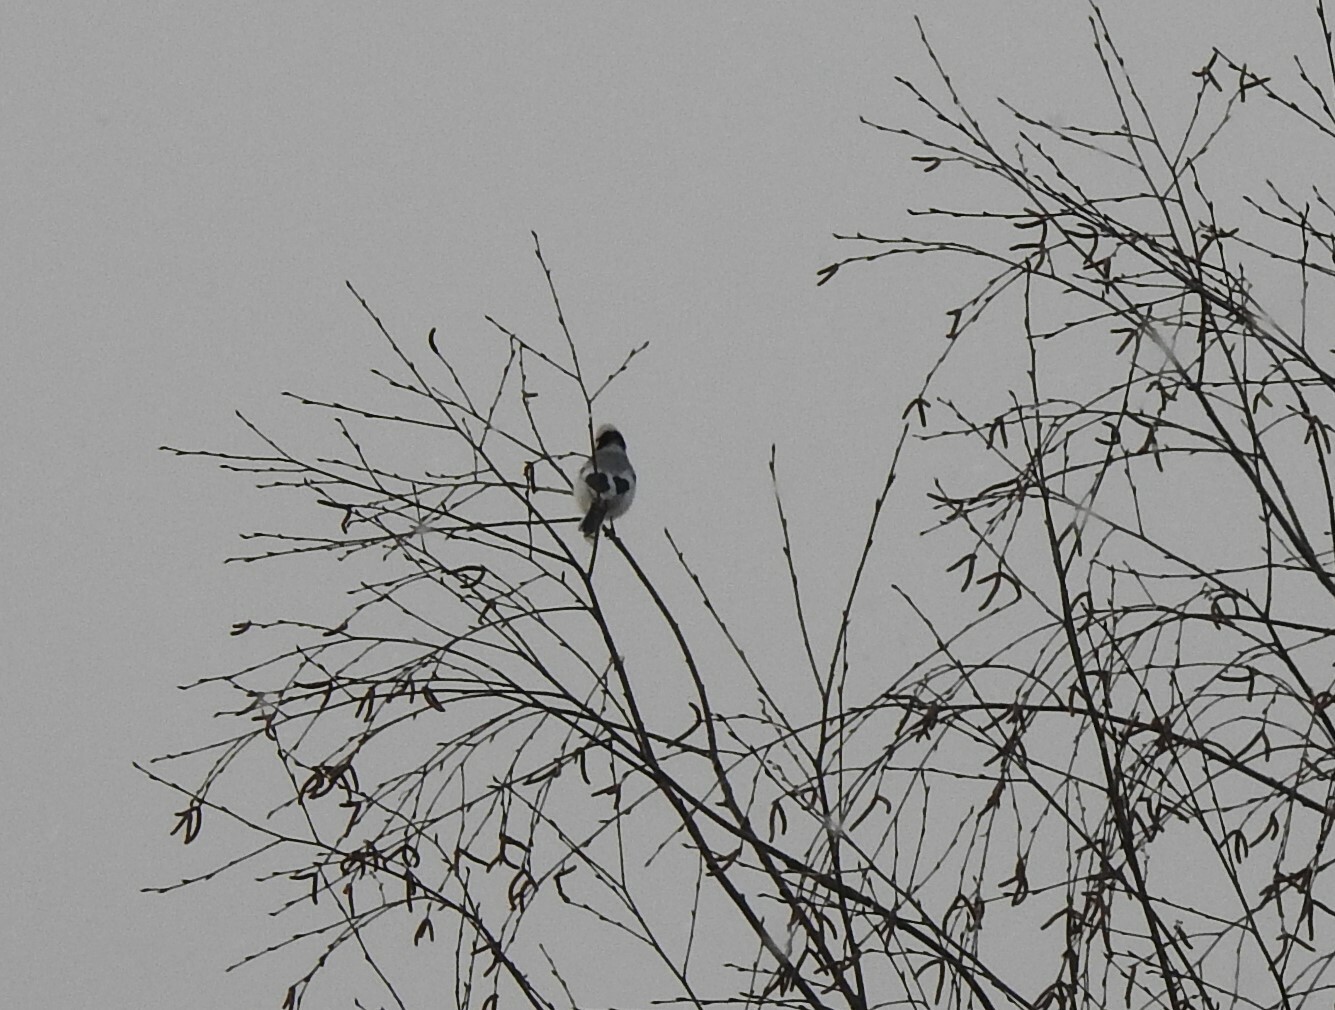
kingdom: Animalia
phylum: Chordata
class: Aves
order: Passeriformes
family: Paridae
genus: Cyanistes
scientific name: Cyanistes cyanus
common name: Azure tit
